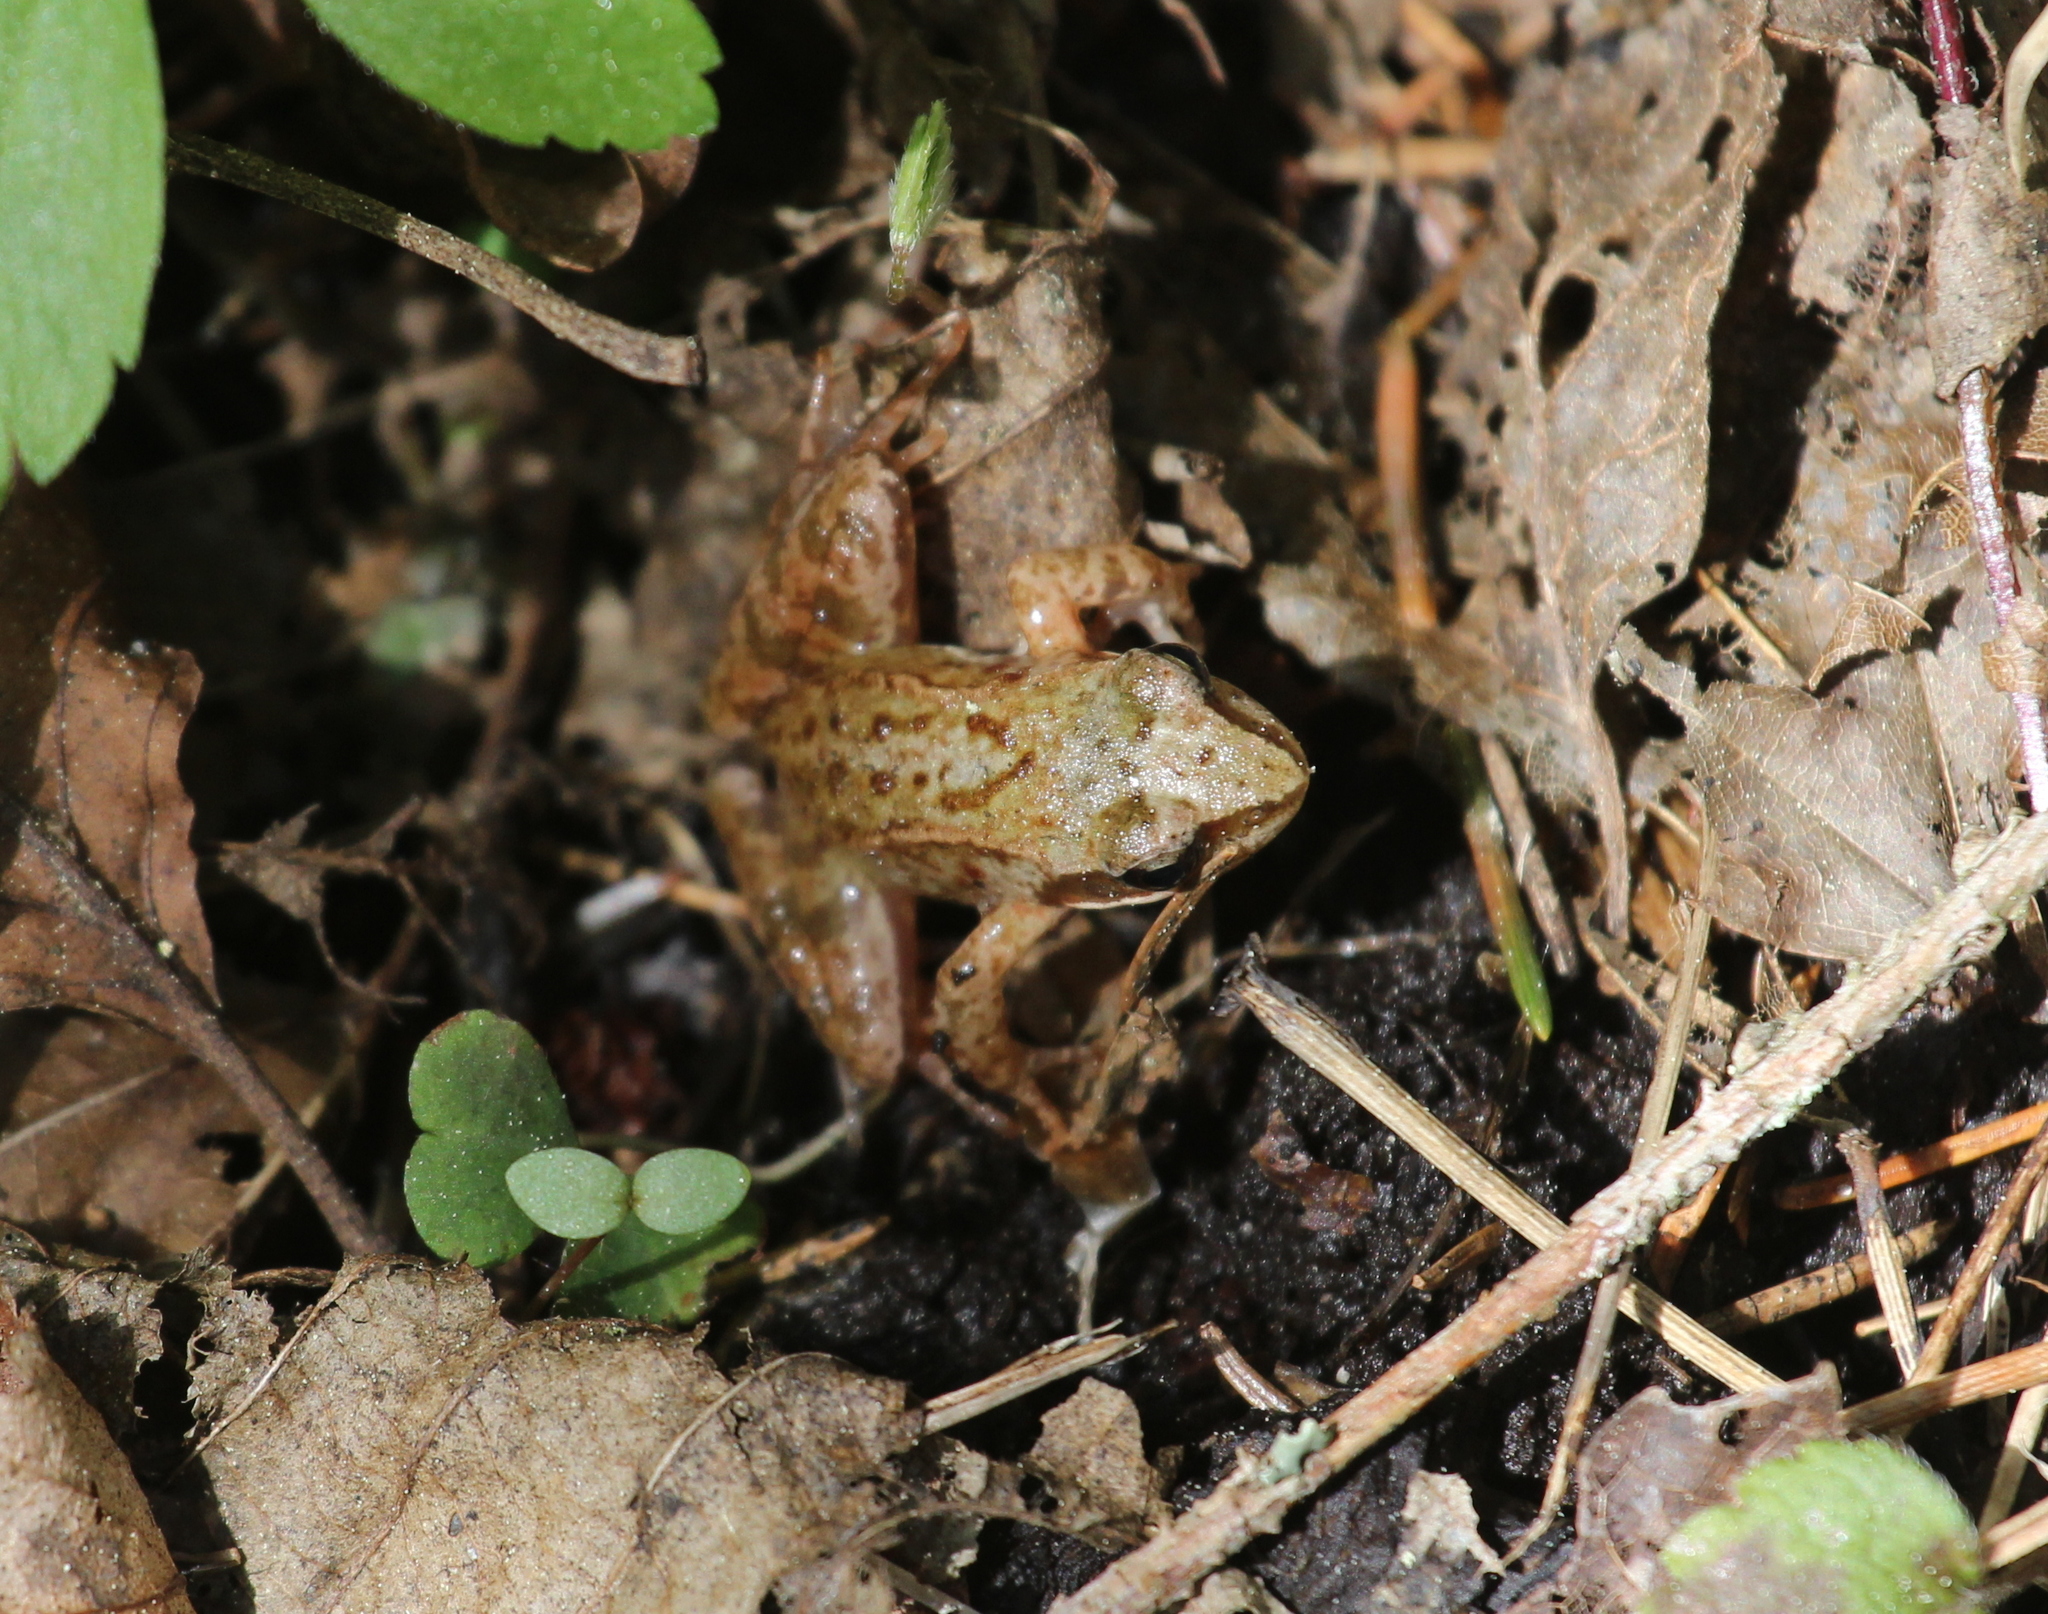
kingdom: Animalia
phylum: Chordata
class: Amphibia
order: Anura
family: Ranidae
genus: Rana
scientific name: Rana
